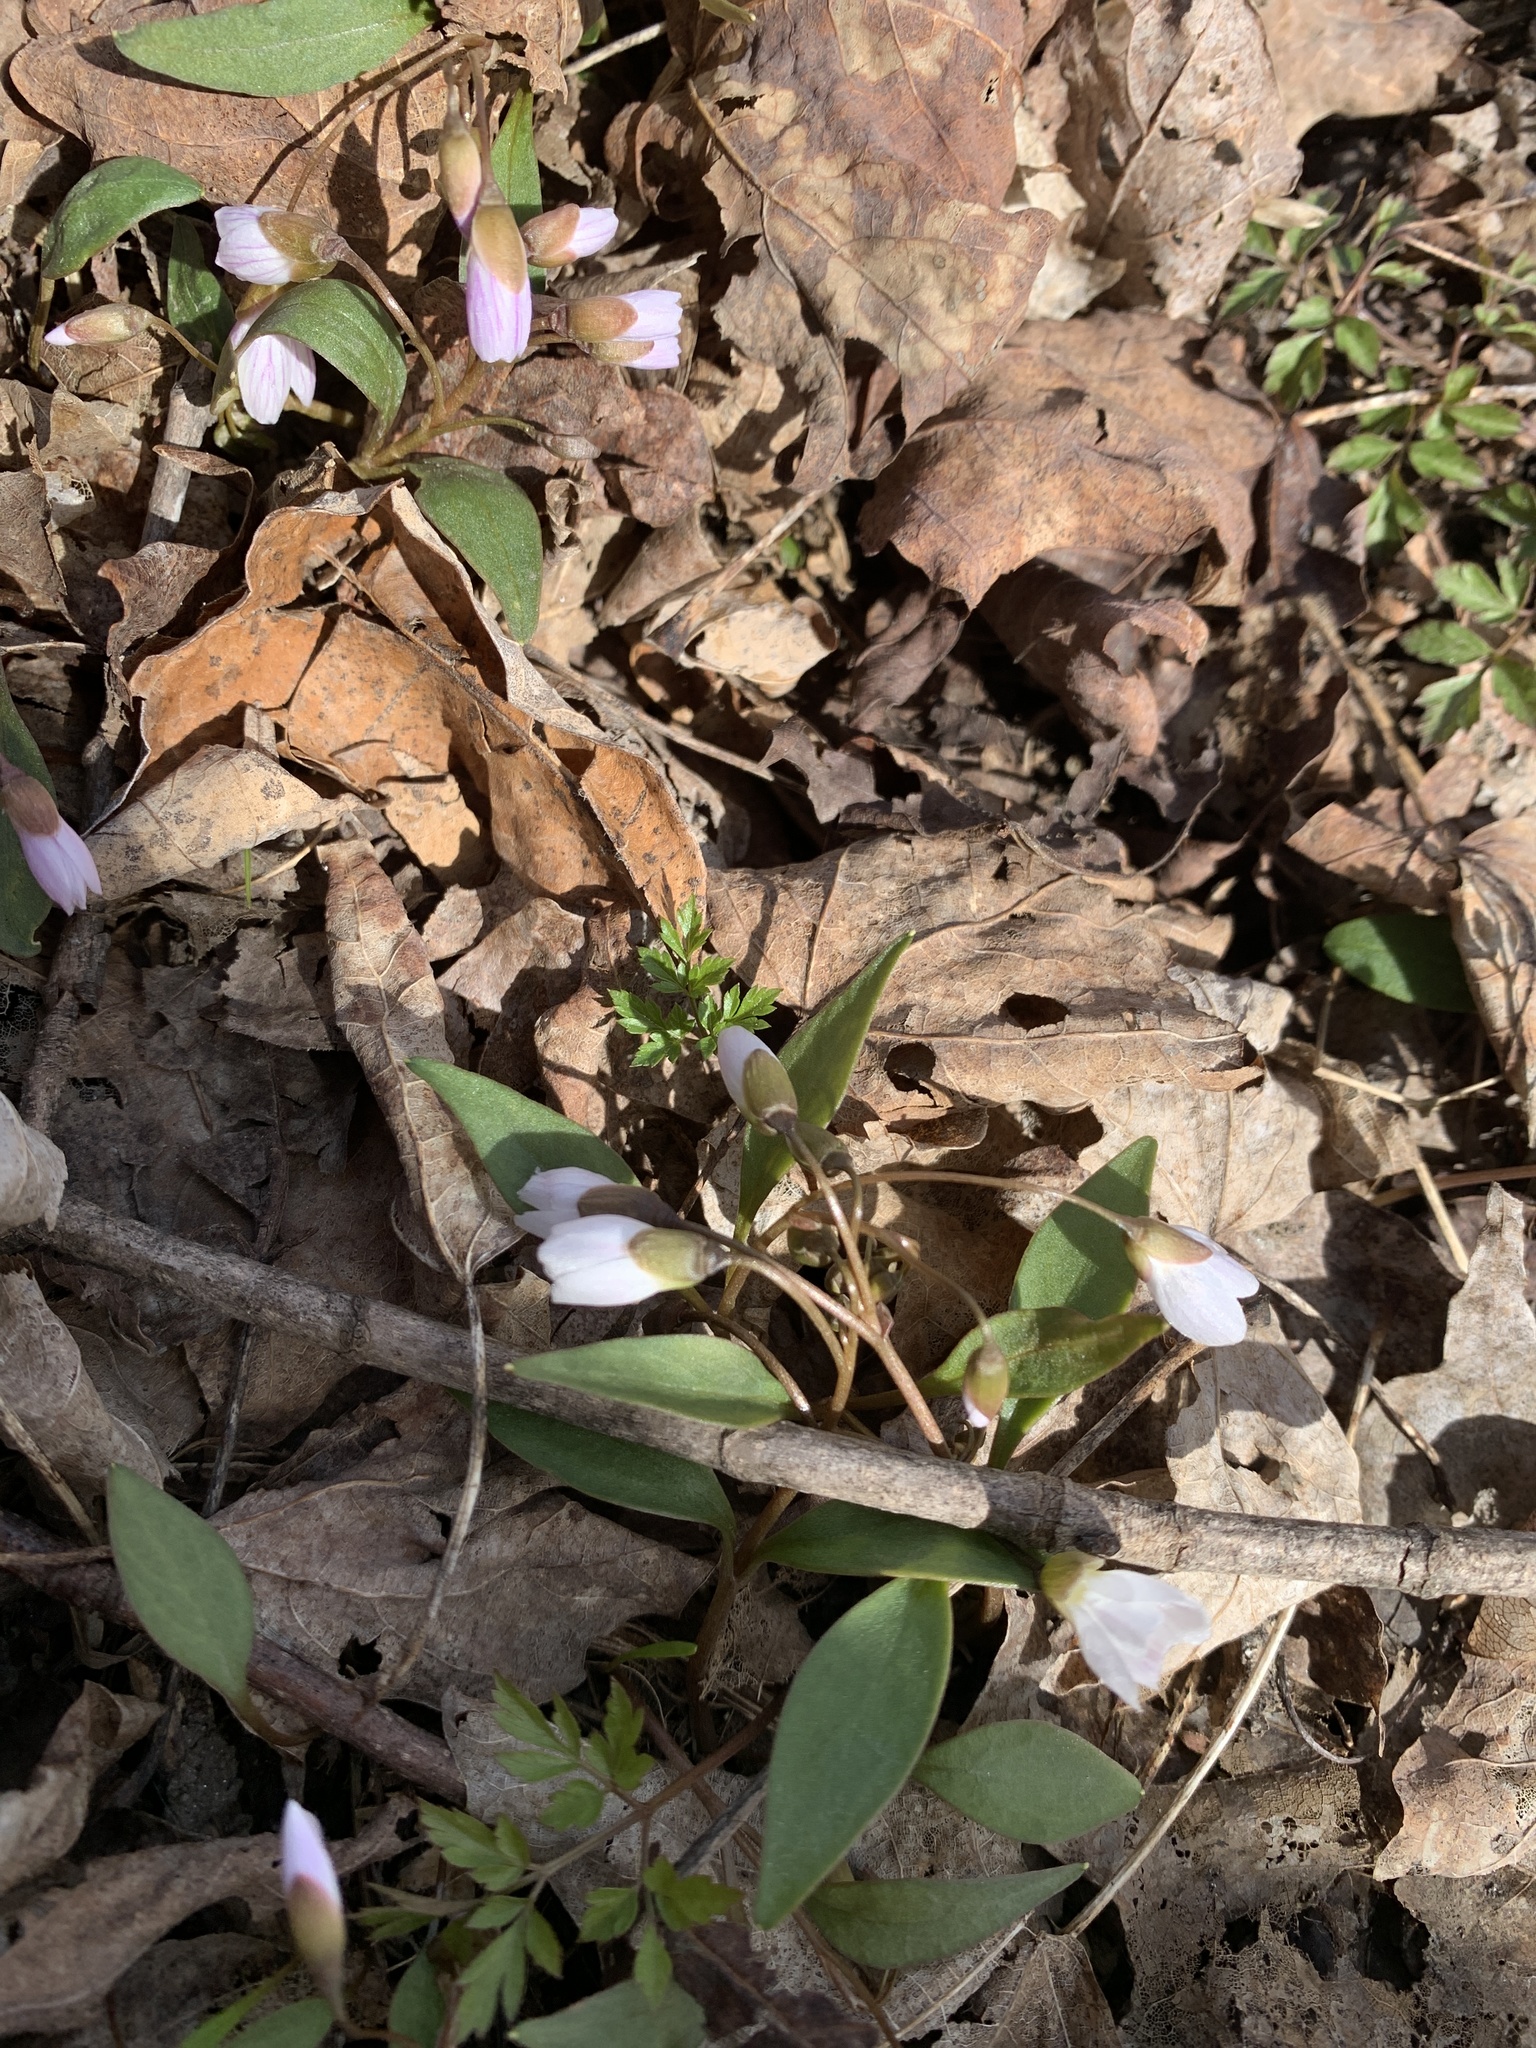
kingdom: Plantae
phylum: Tracheophyta
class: Magnoliopsida
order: Caryophyllales
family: Montiaceae
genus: Claytonia
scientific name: Claytonia caroliniana
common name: Carolina spring beauty
